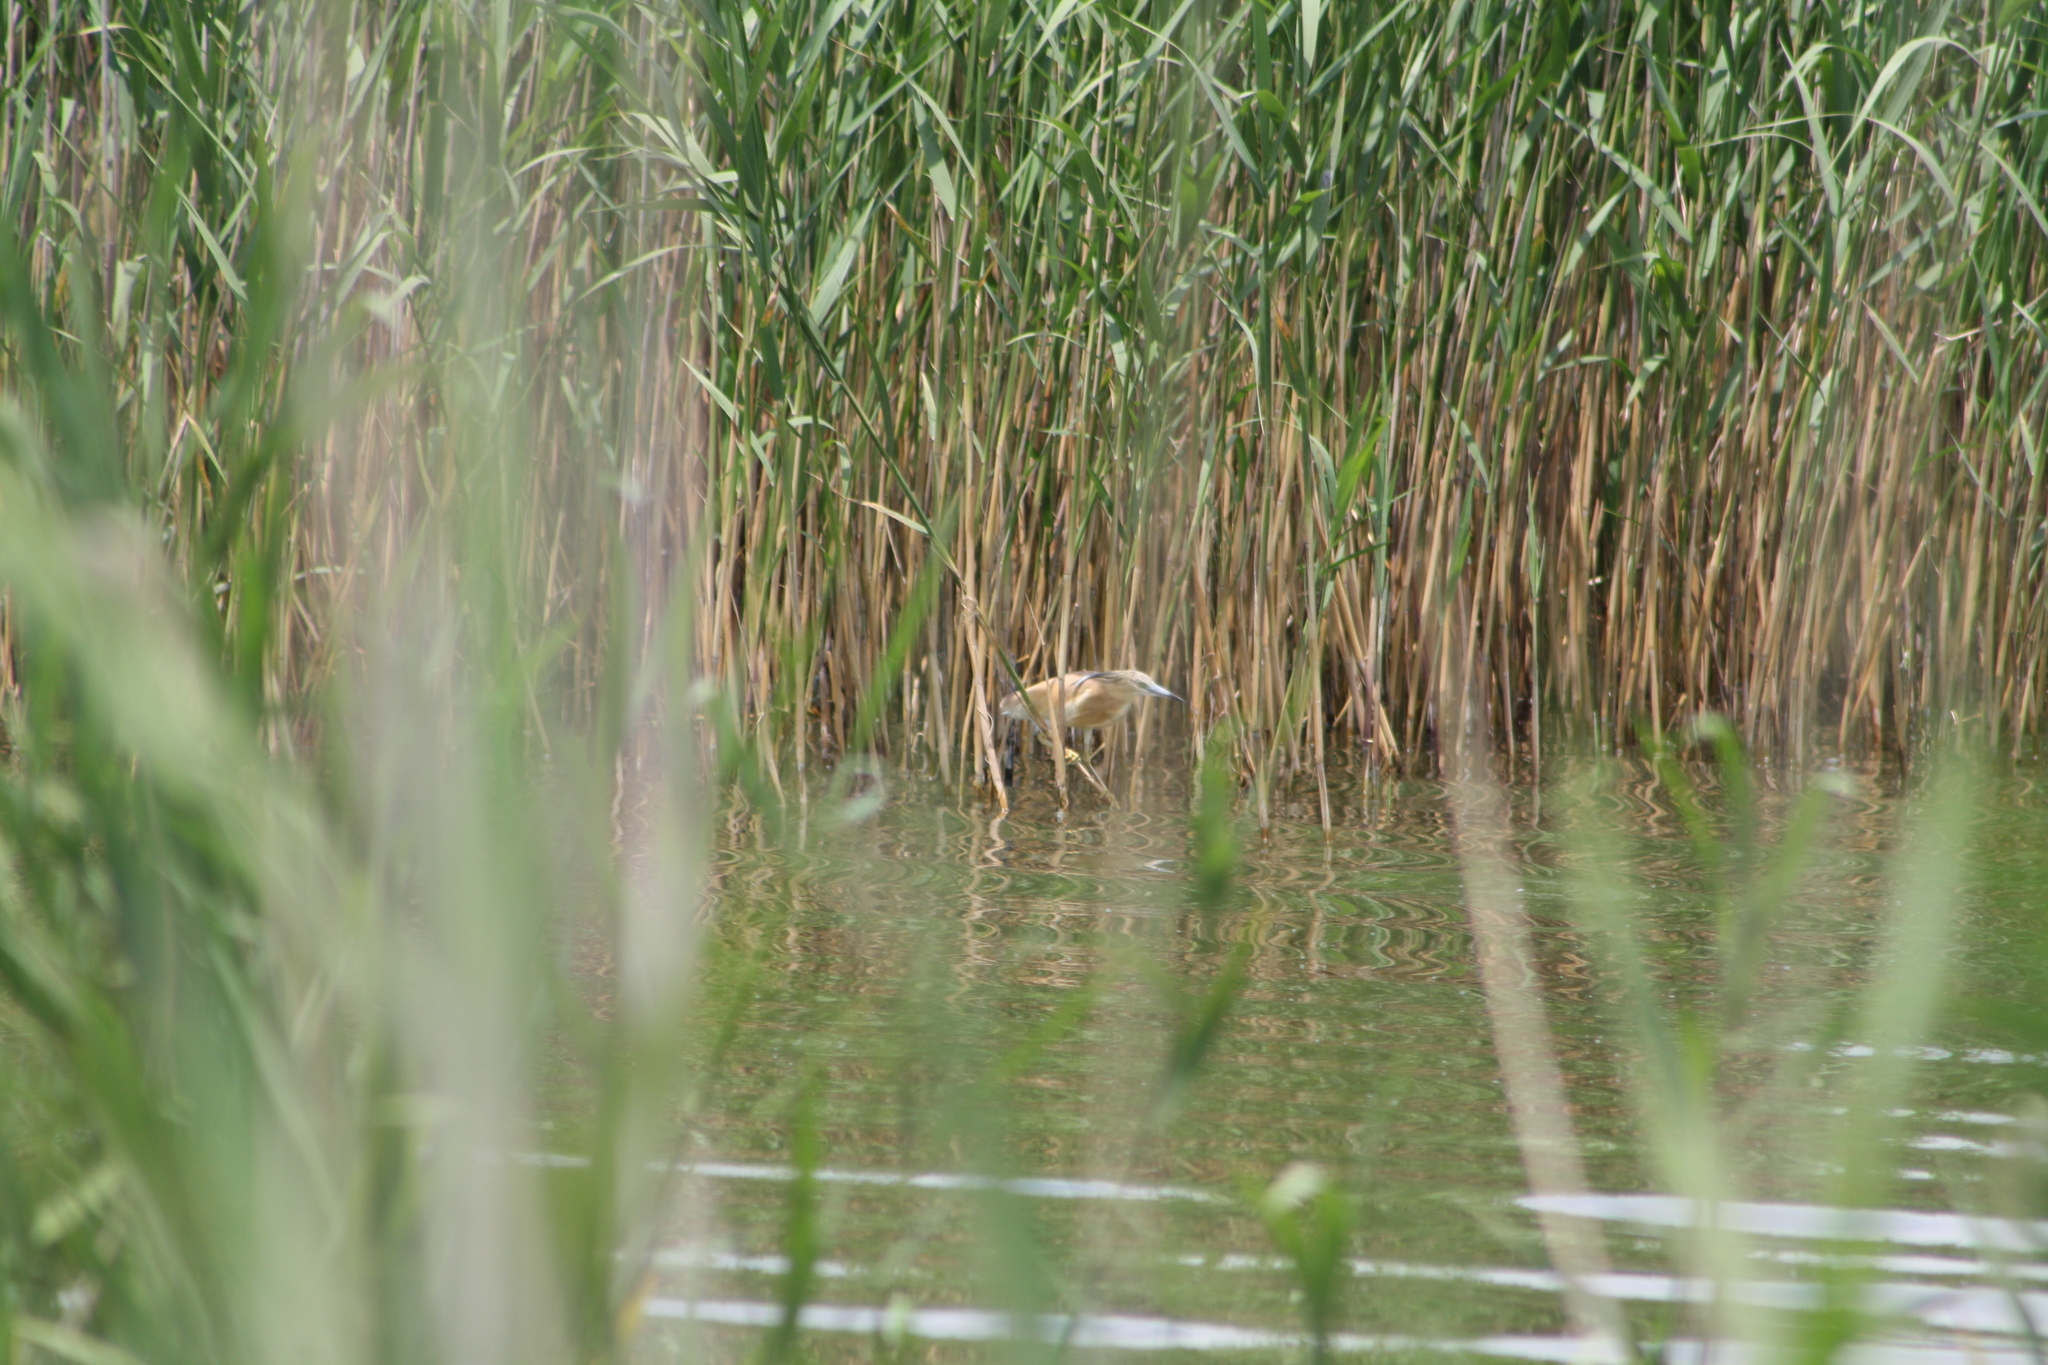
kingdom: Animalia
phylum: Chordata
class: Aves
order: Pelecaniformes
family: Ardeidae
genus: Ardeola
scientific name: Ardeola ralloides
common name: Squacco heron
